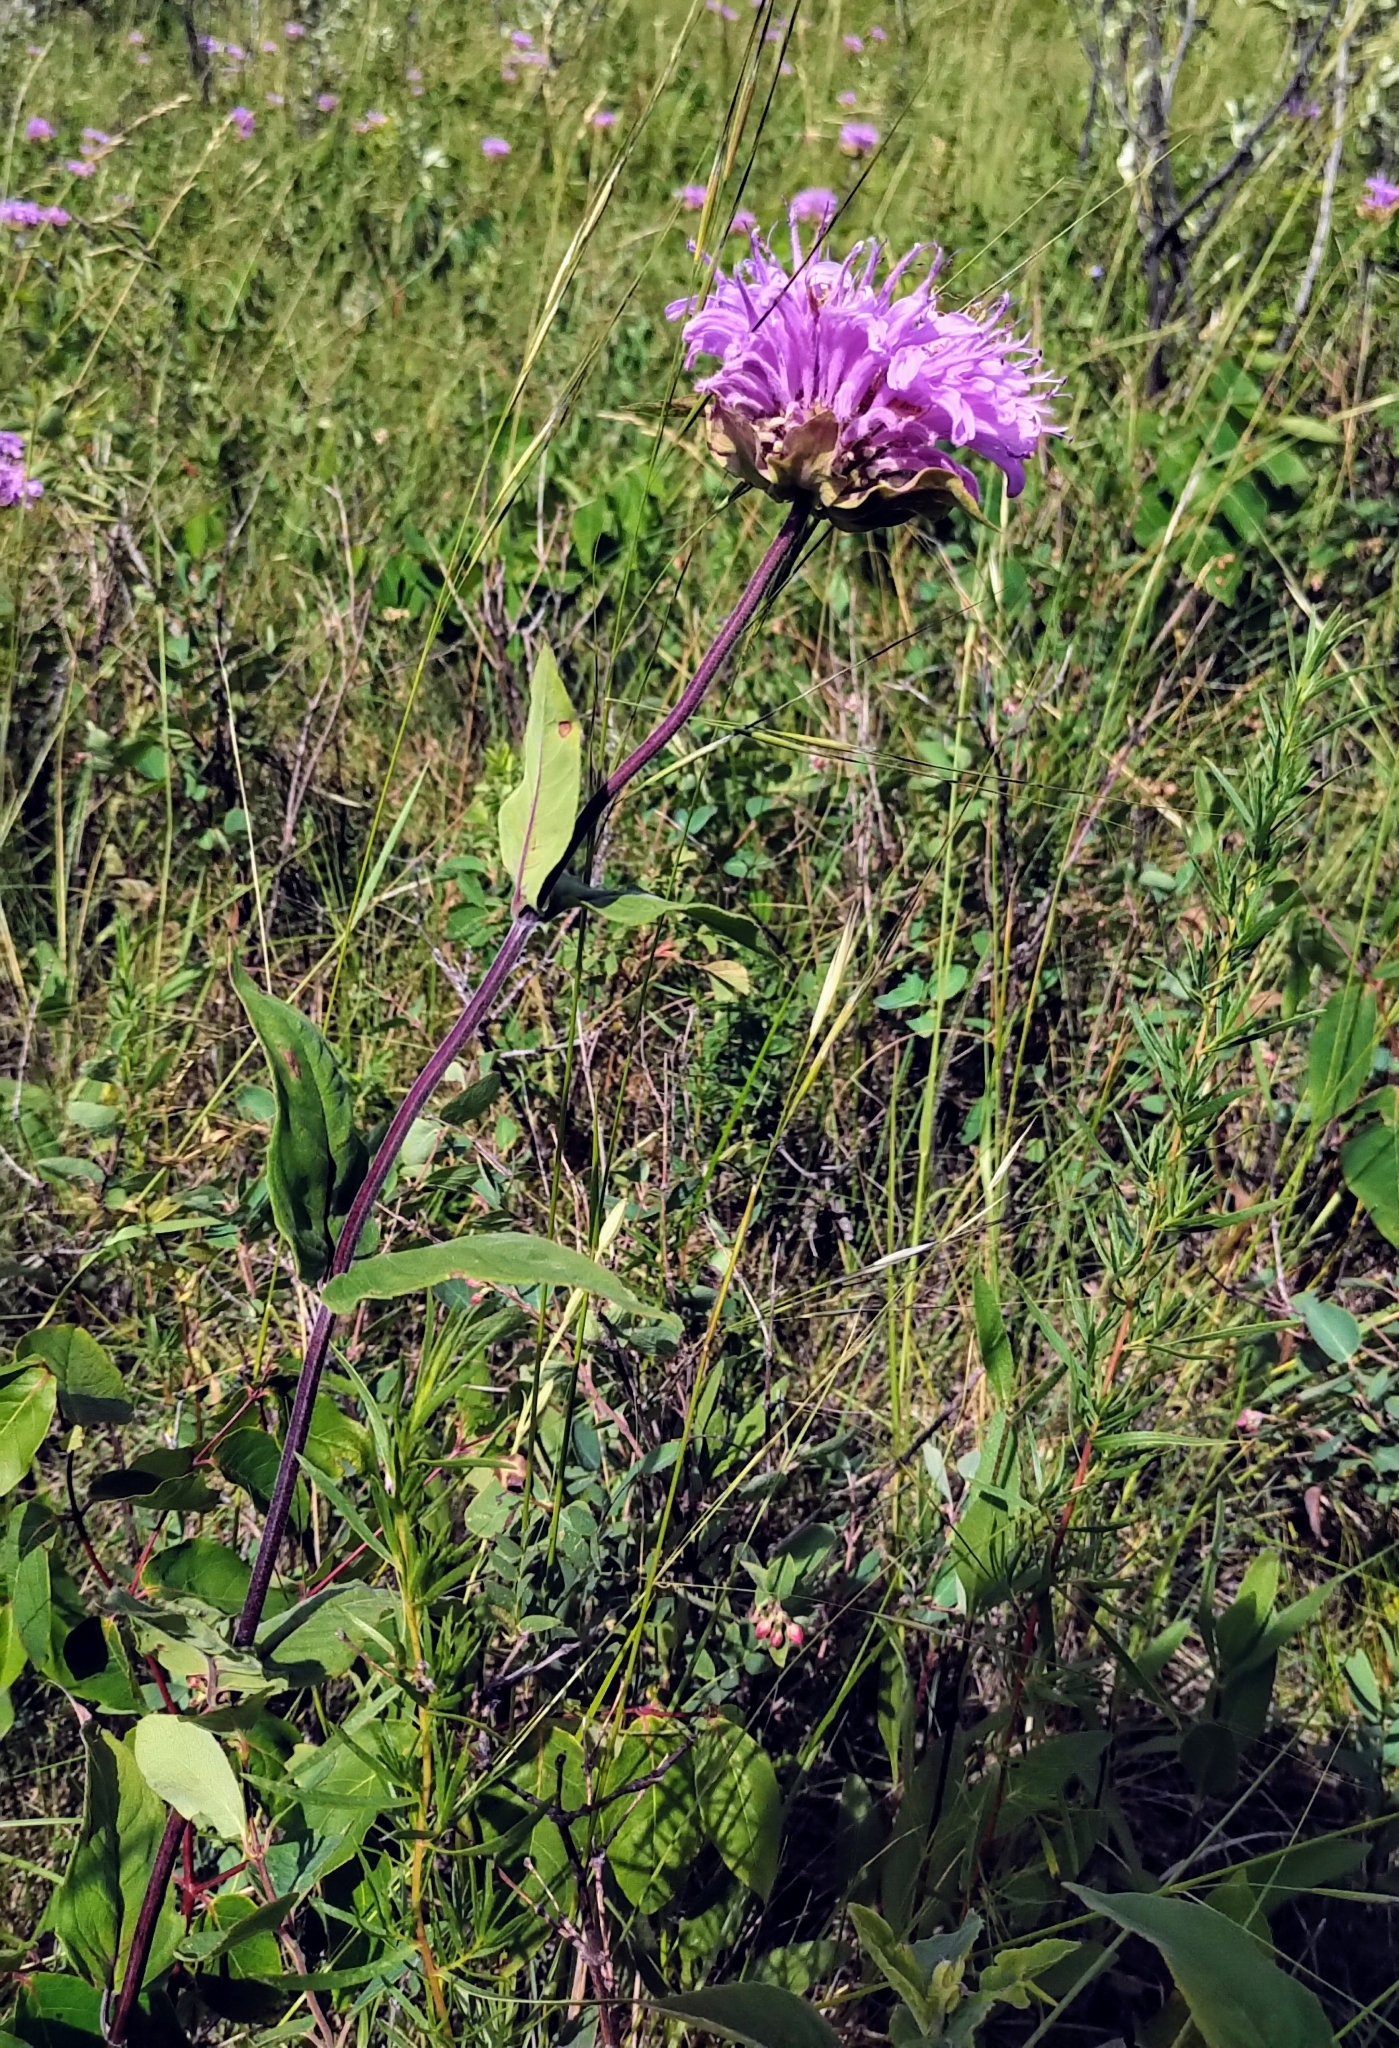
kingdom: Plantae
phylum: Tracheophyta
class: Magnoliopsida
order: Lamiales
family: Lamiaceae
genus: Monarda
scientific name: Monarda fistulosa
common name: Purple beebalm
